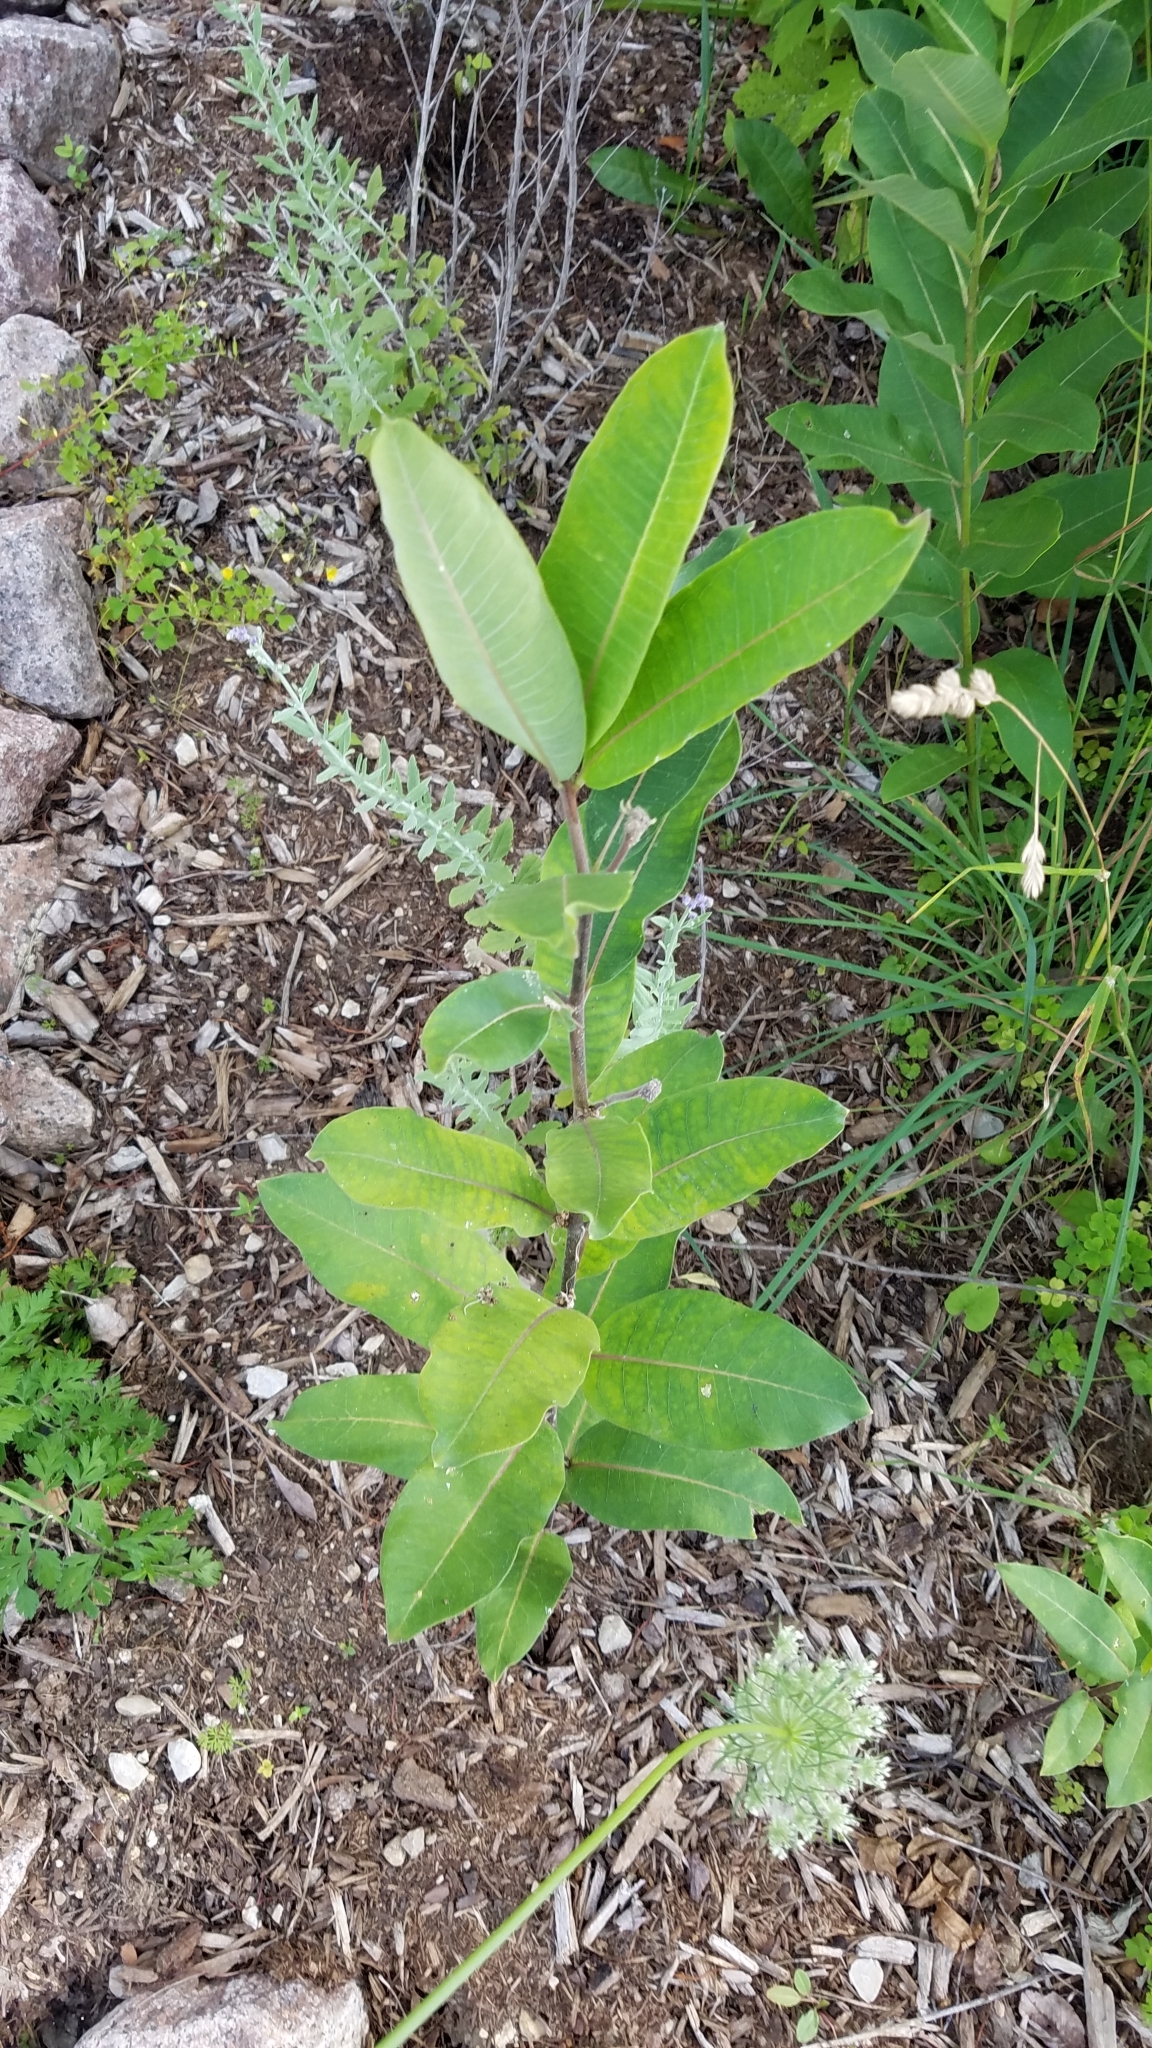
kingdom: Plantae
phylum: Tracheophyta
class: Magnoliopsida
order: Gentianales
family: Apocynaceae
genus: Asclepias
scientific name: Asclepias syriaca
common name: Common milkweed
